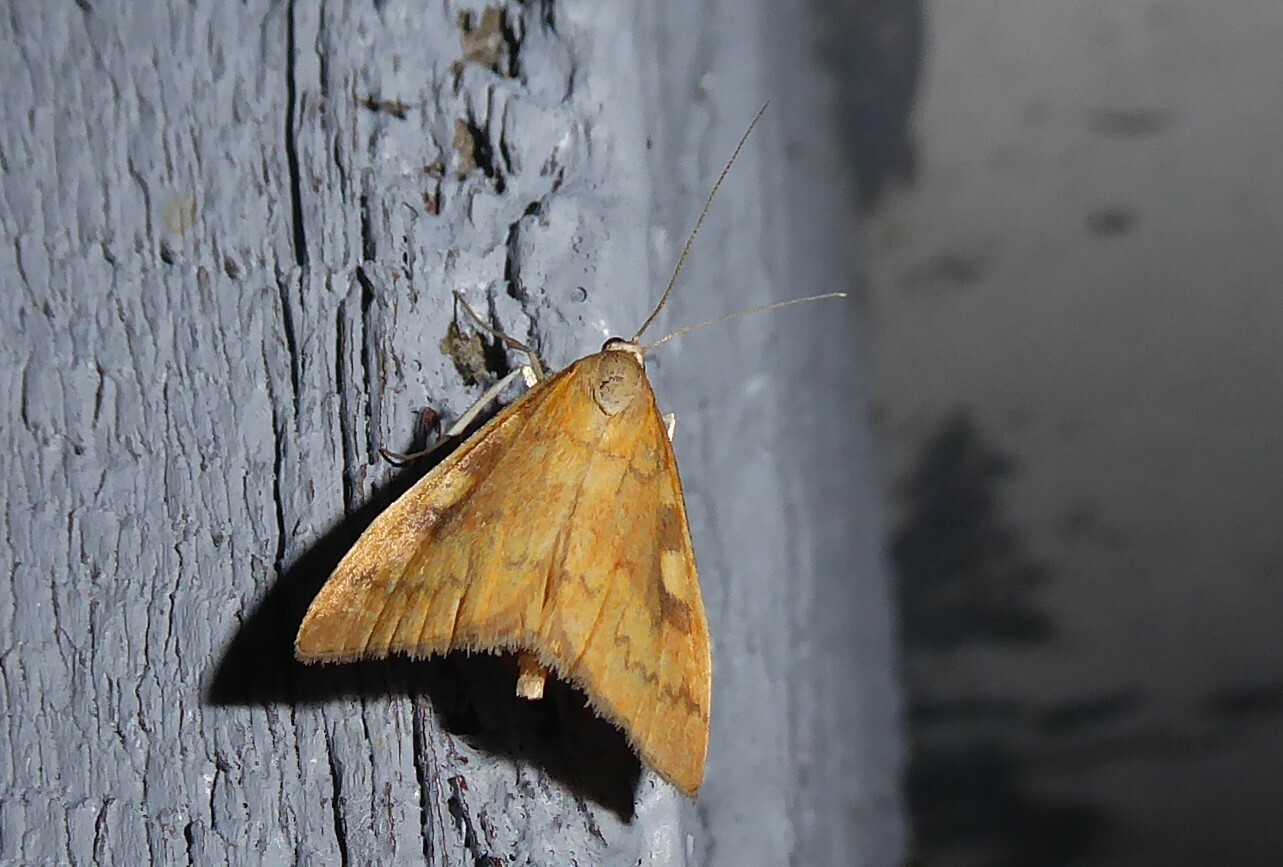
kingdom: Animalia
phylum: Arthropoda
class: Insecta
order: Lepidoptera
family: Crambidae
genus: Udea
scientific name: Udea Mnesictena flavidalis
